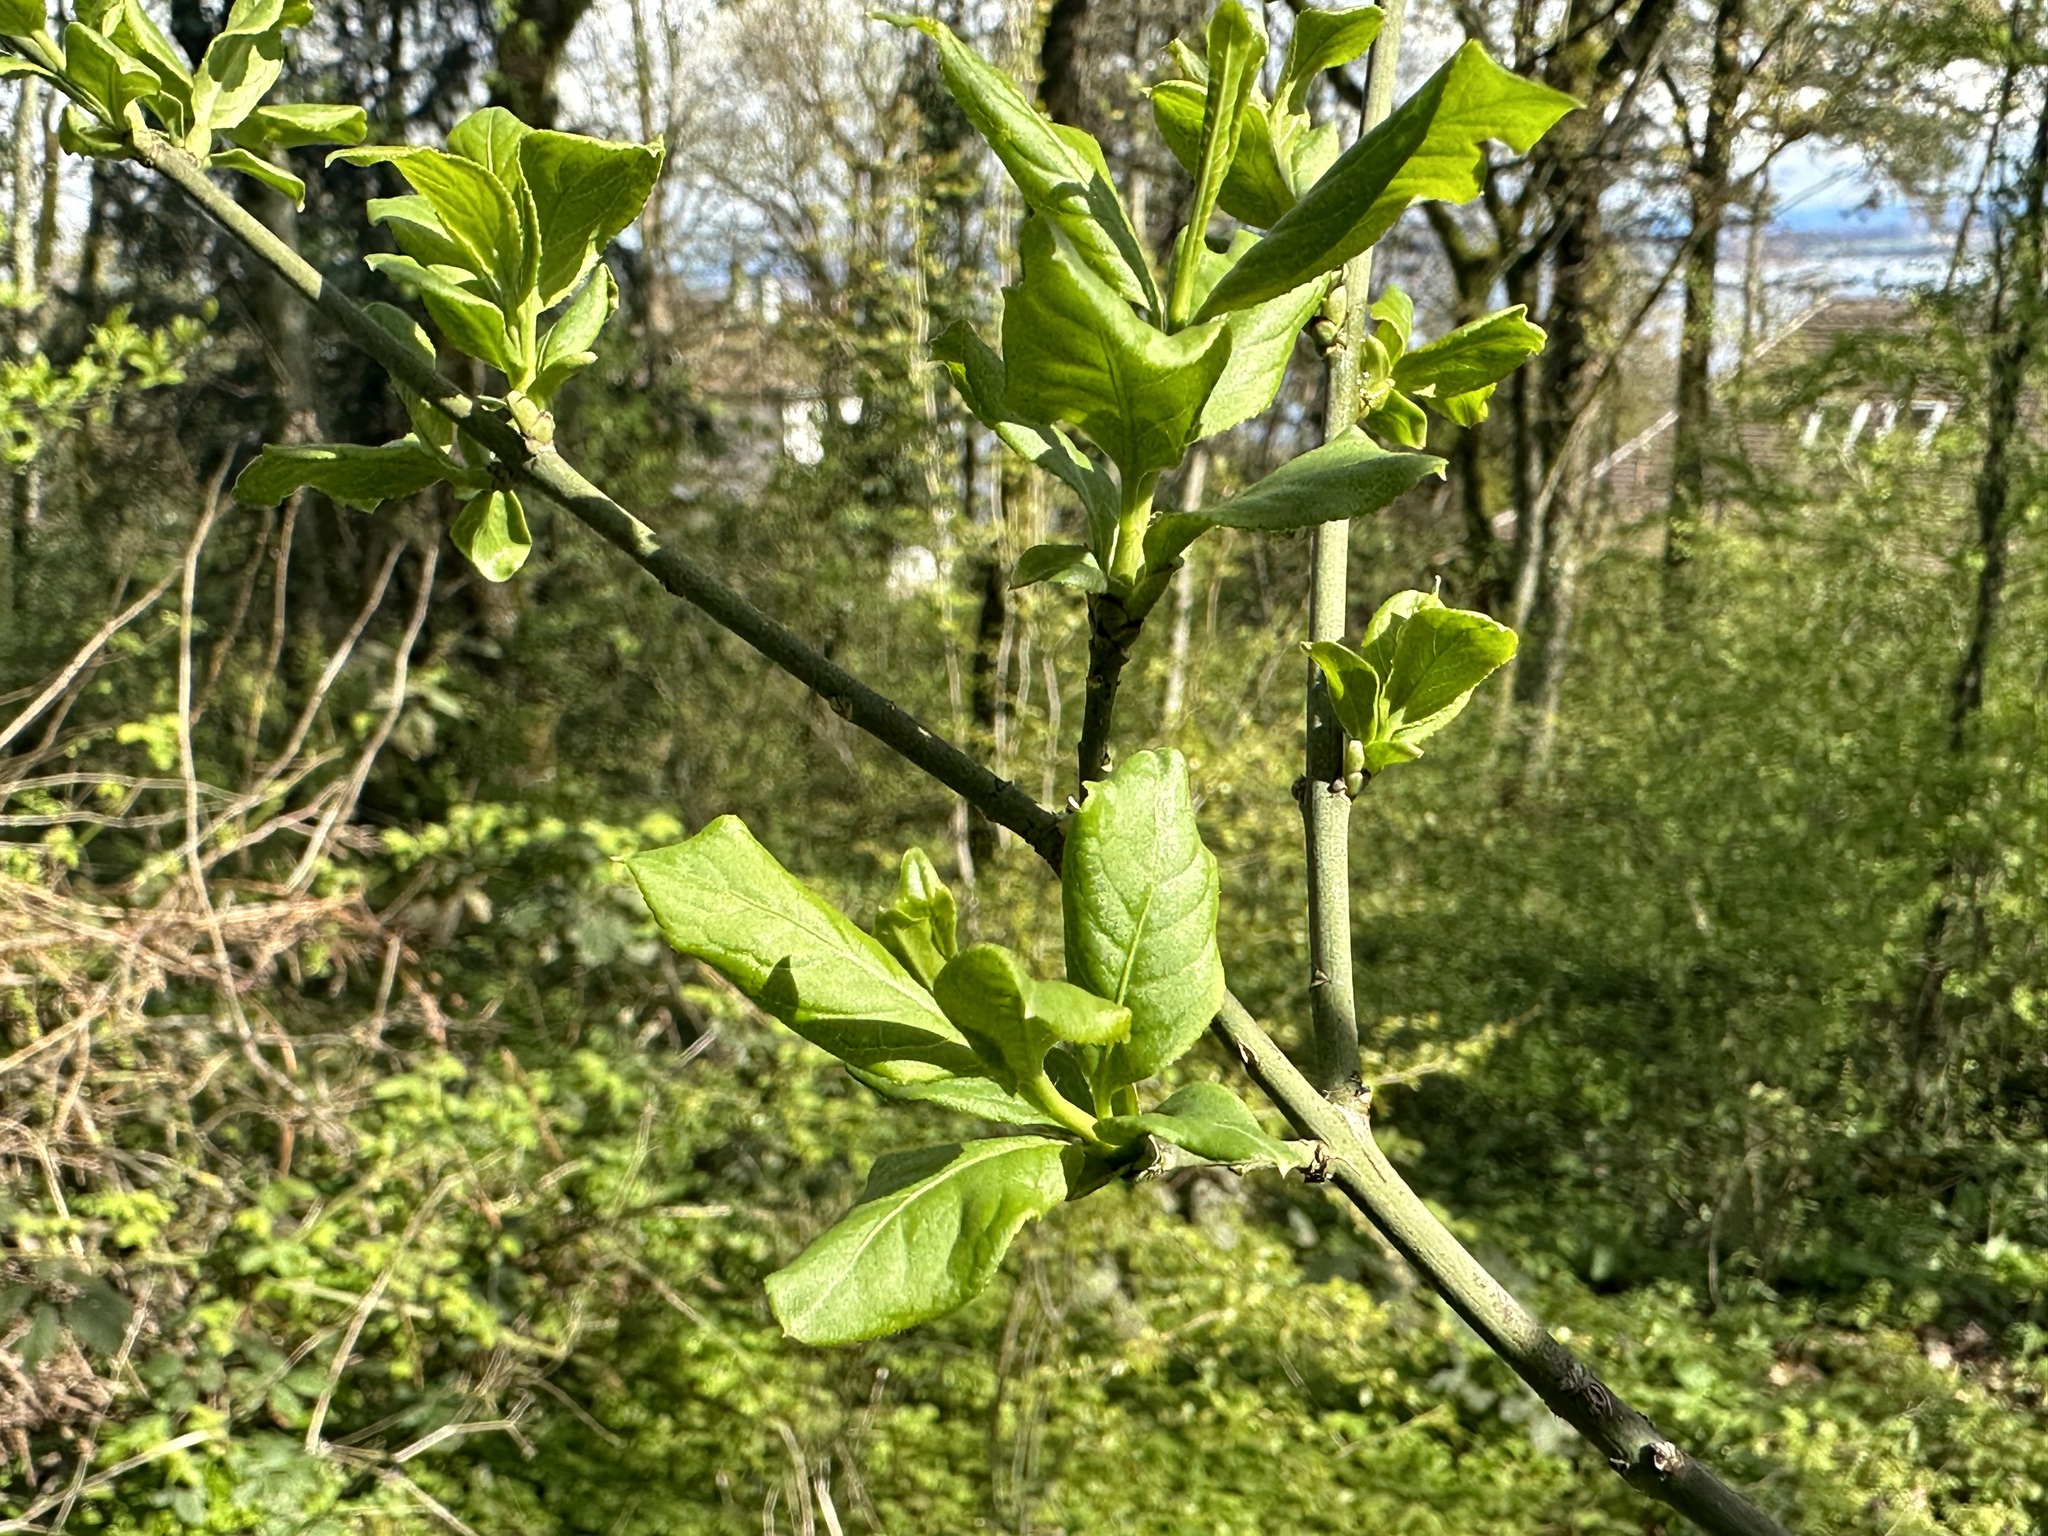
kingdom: Plantae
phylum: Tracheophyta
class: Magnoliopsida
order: Celastrales
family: Celastraceae
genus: Euonymus
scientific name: Euonymus europaeus
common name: Spindle
